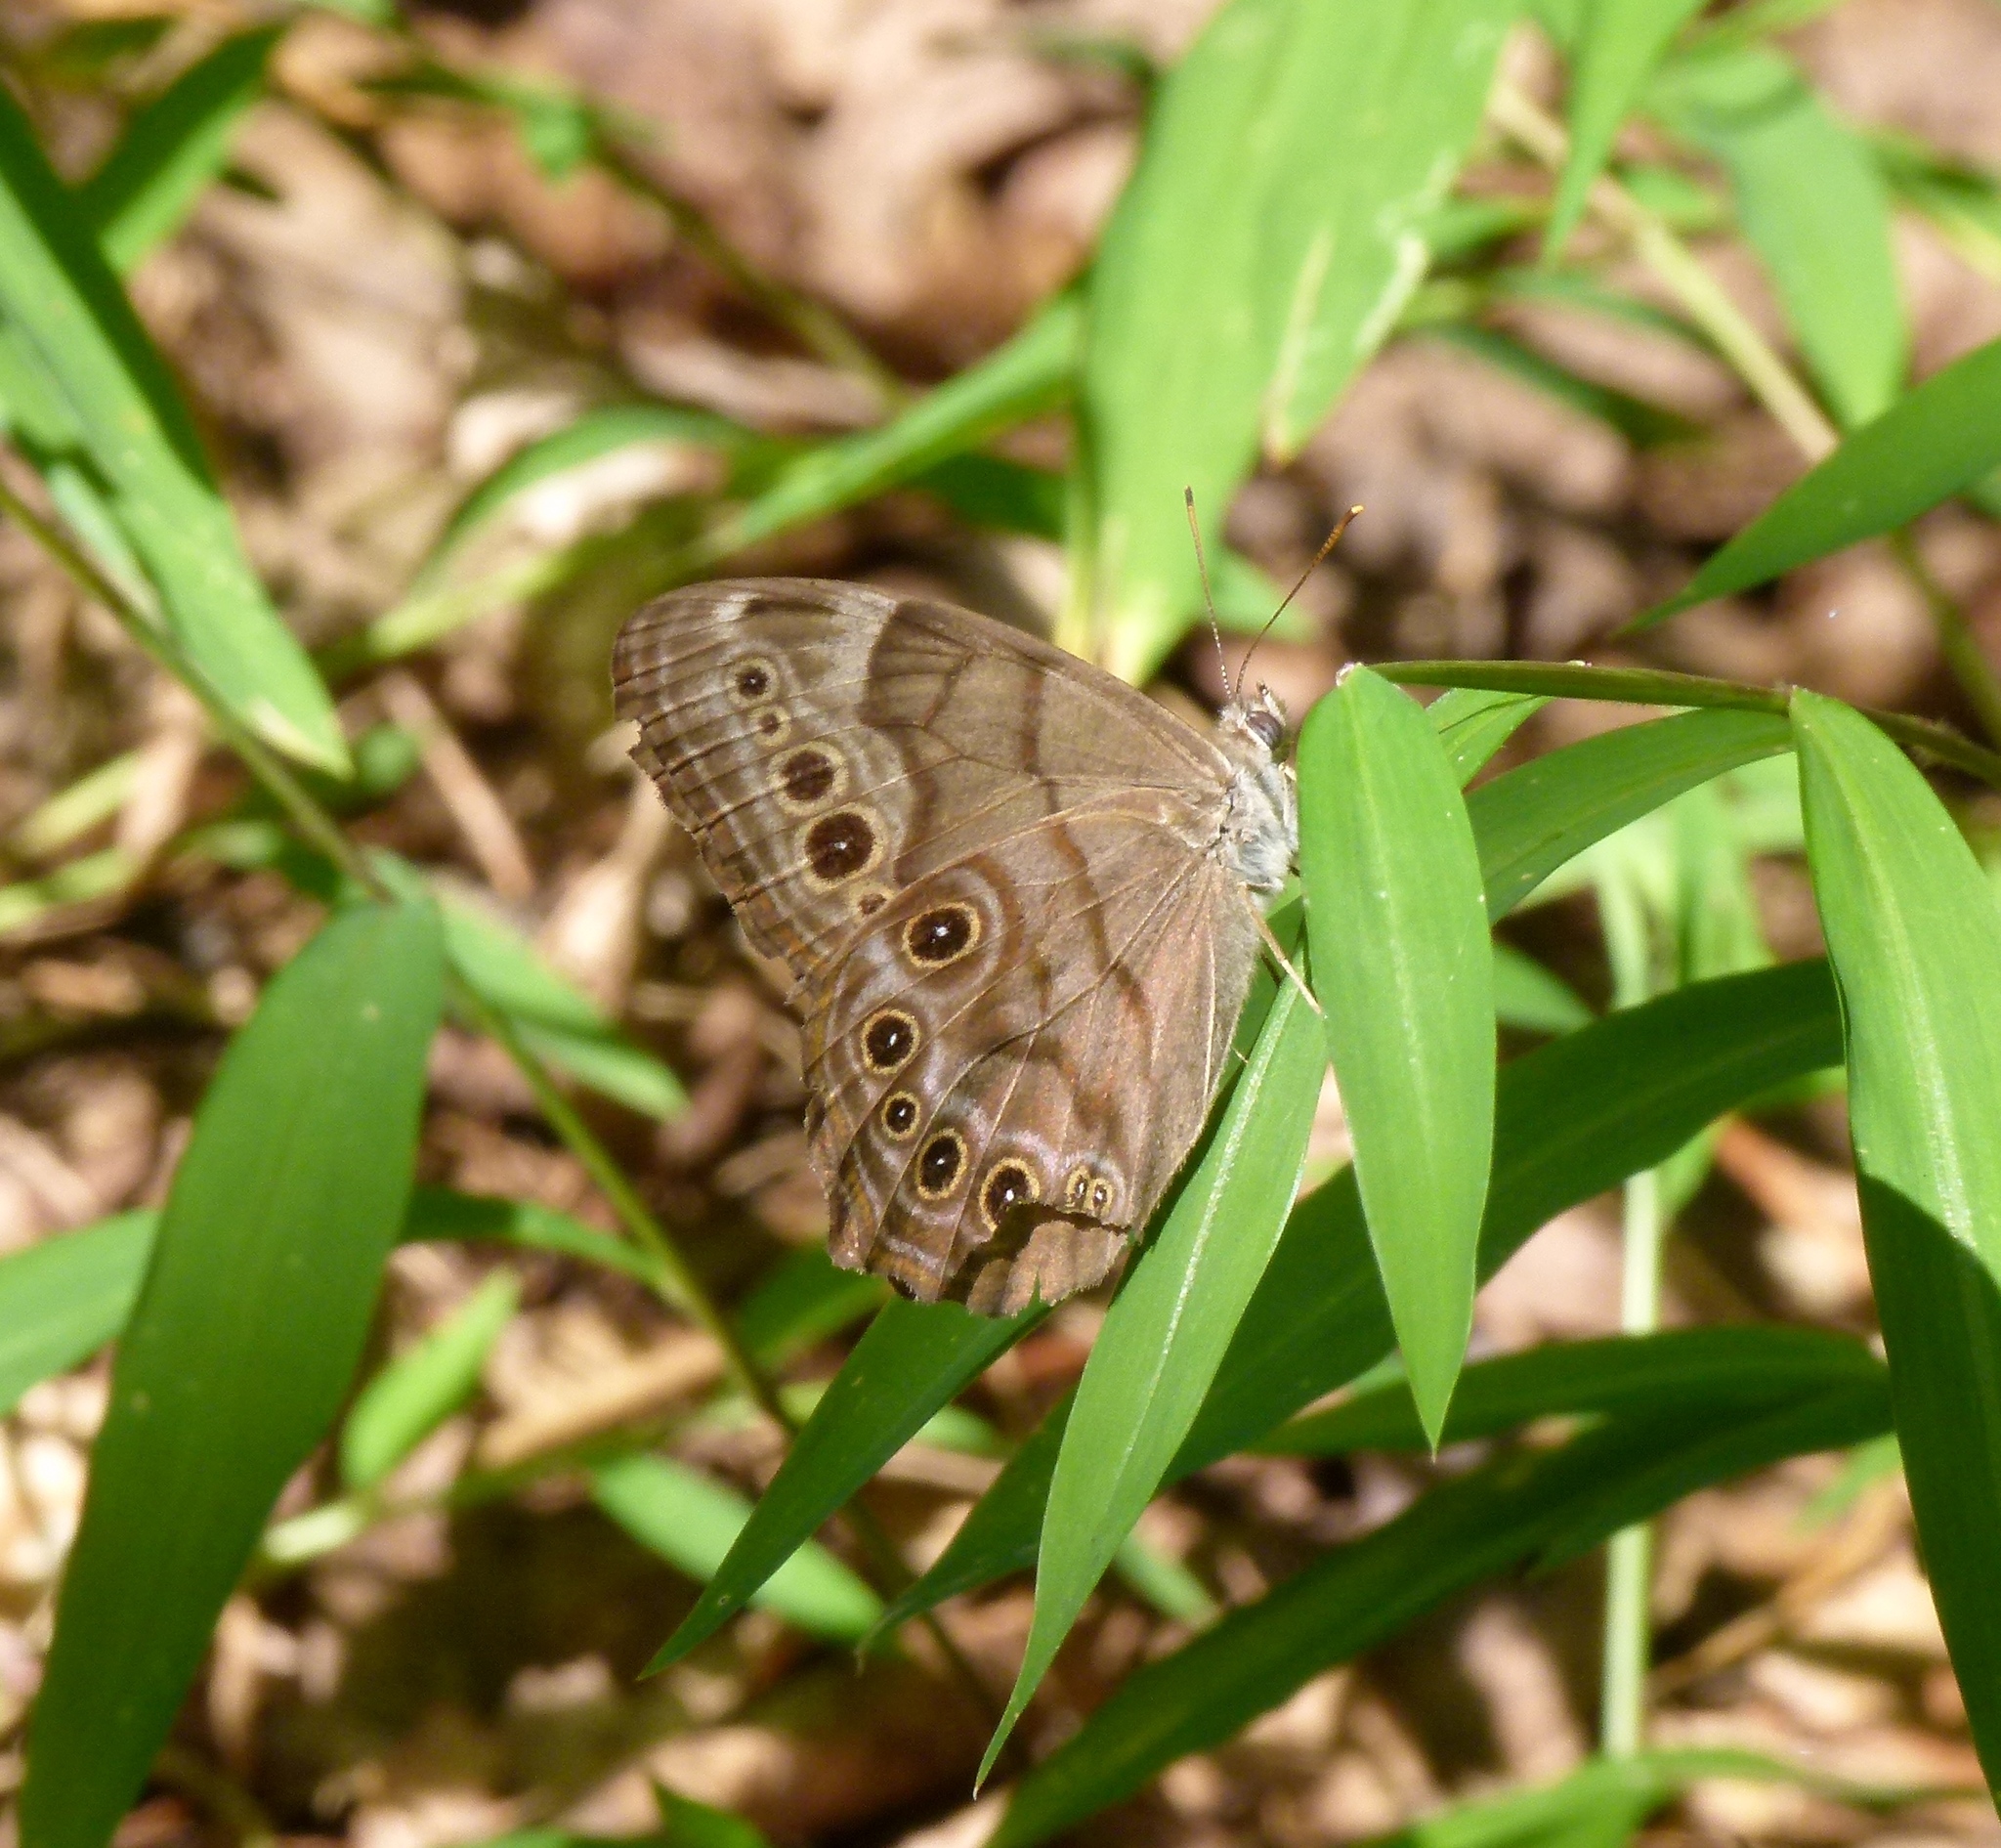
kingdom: Animalia
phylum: Arthropoda
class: Insecta
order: Lepidoptera
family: Nymphalidae
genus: Lethe
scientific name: Lethe anthedon
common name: Northern pearly-eye
